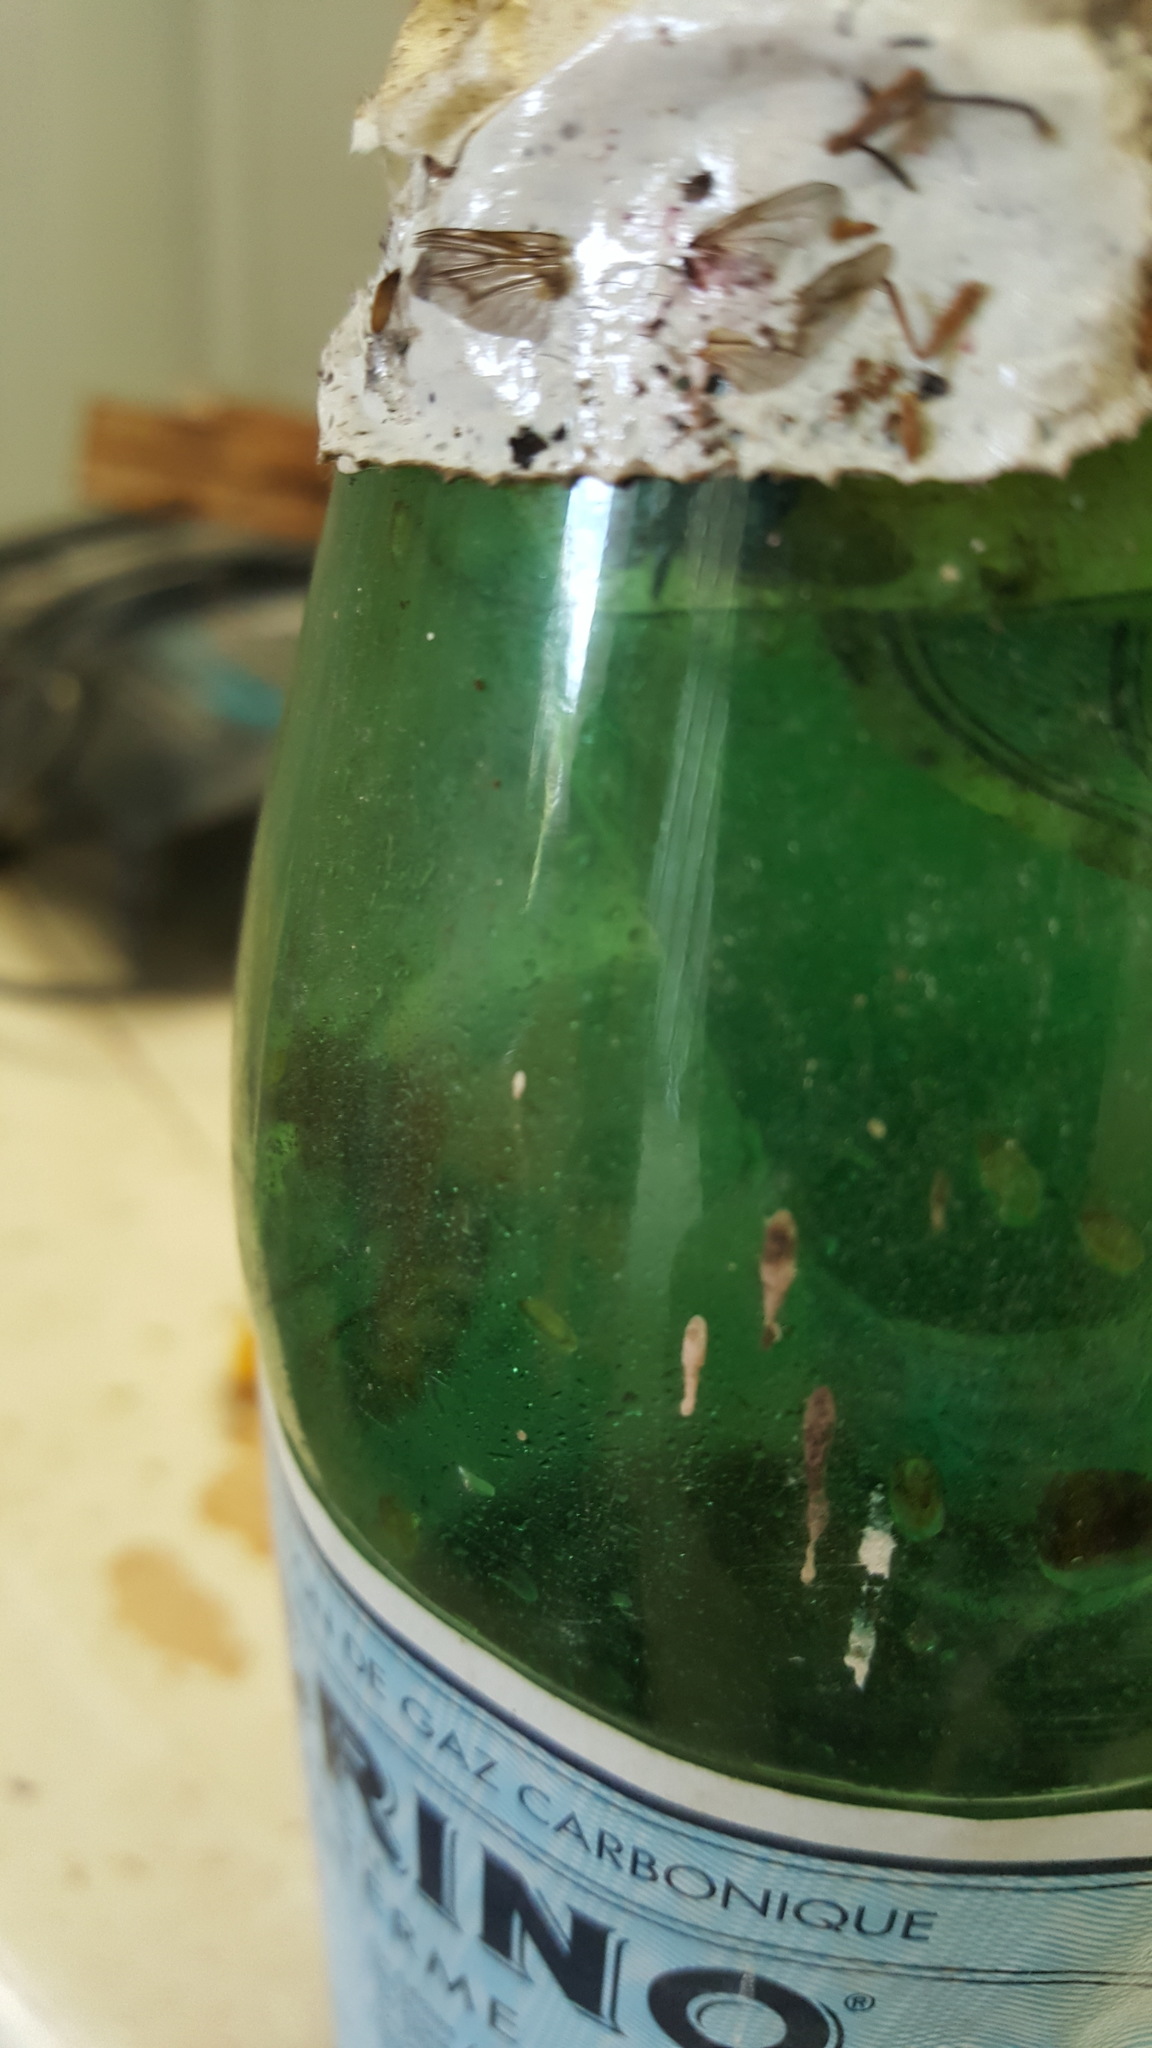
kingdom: Animalia
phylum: Arthropoda
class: Insecta
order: Hymenoptera
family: Vespidae
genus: Vespa
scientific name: Vespa crabro
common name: Hornet
